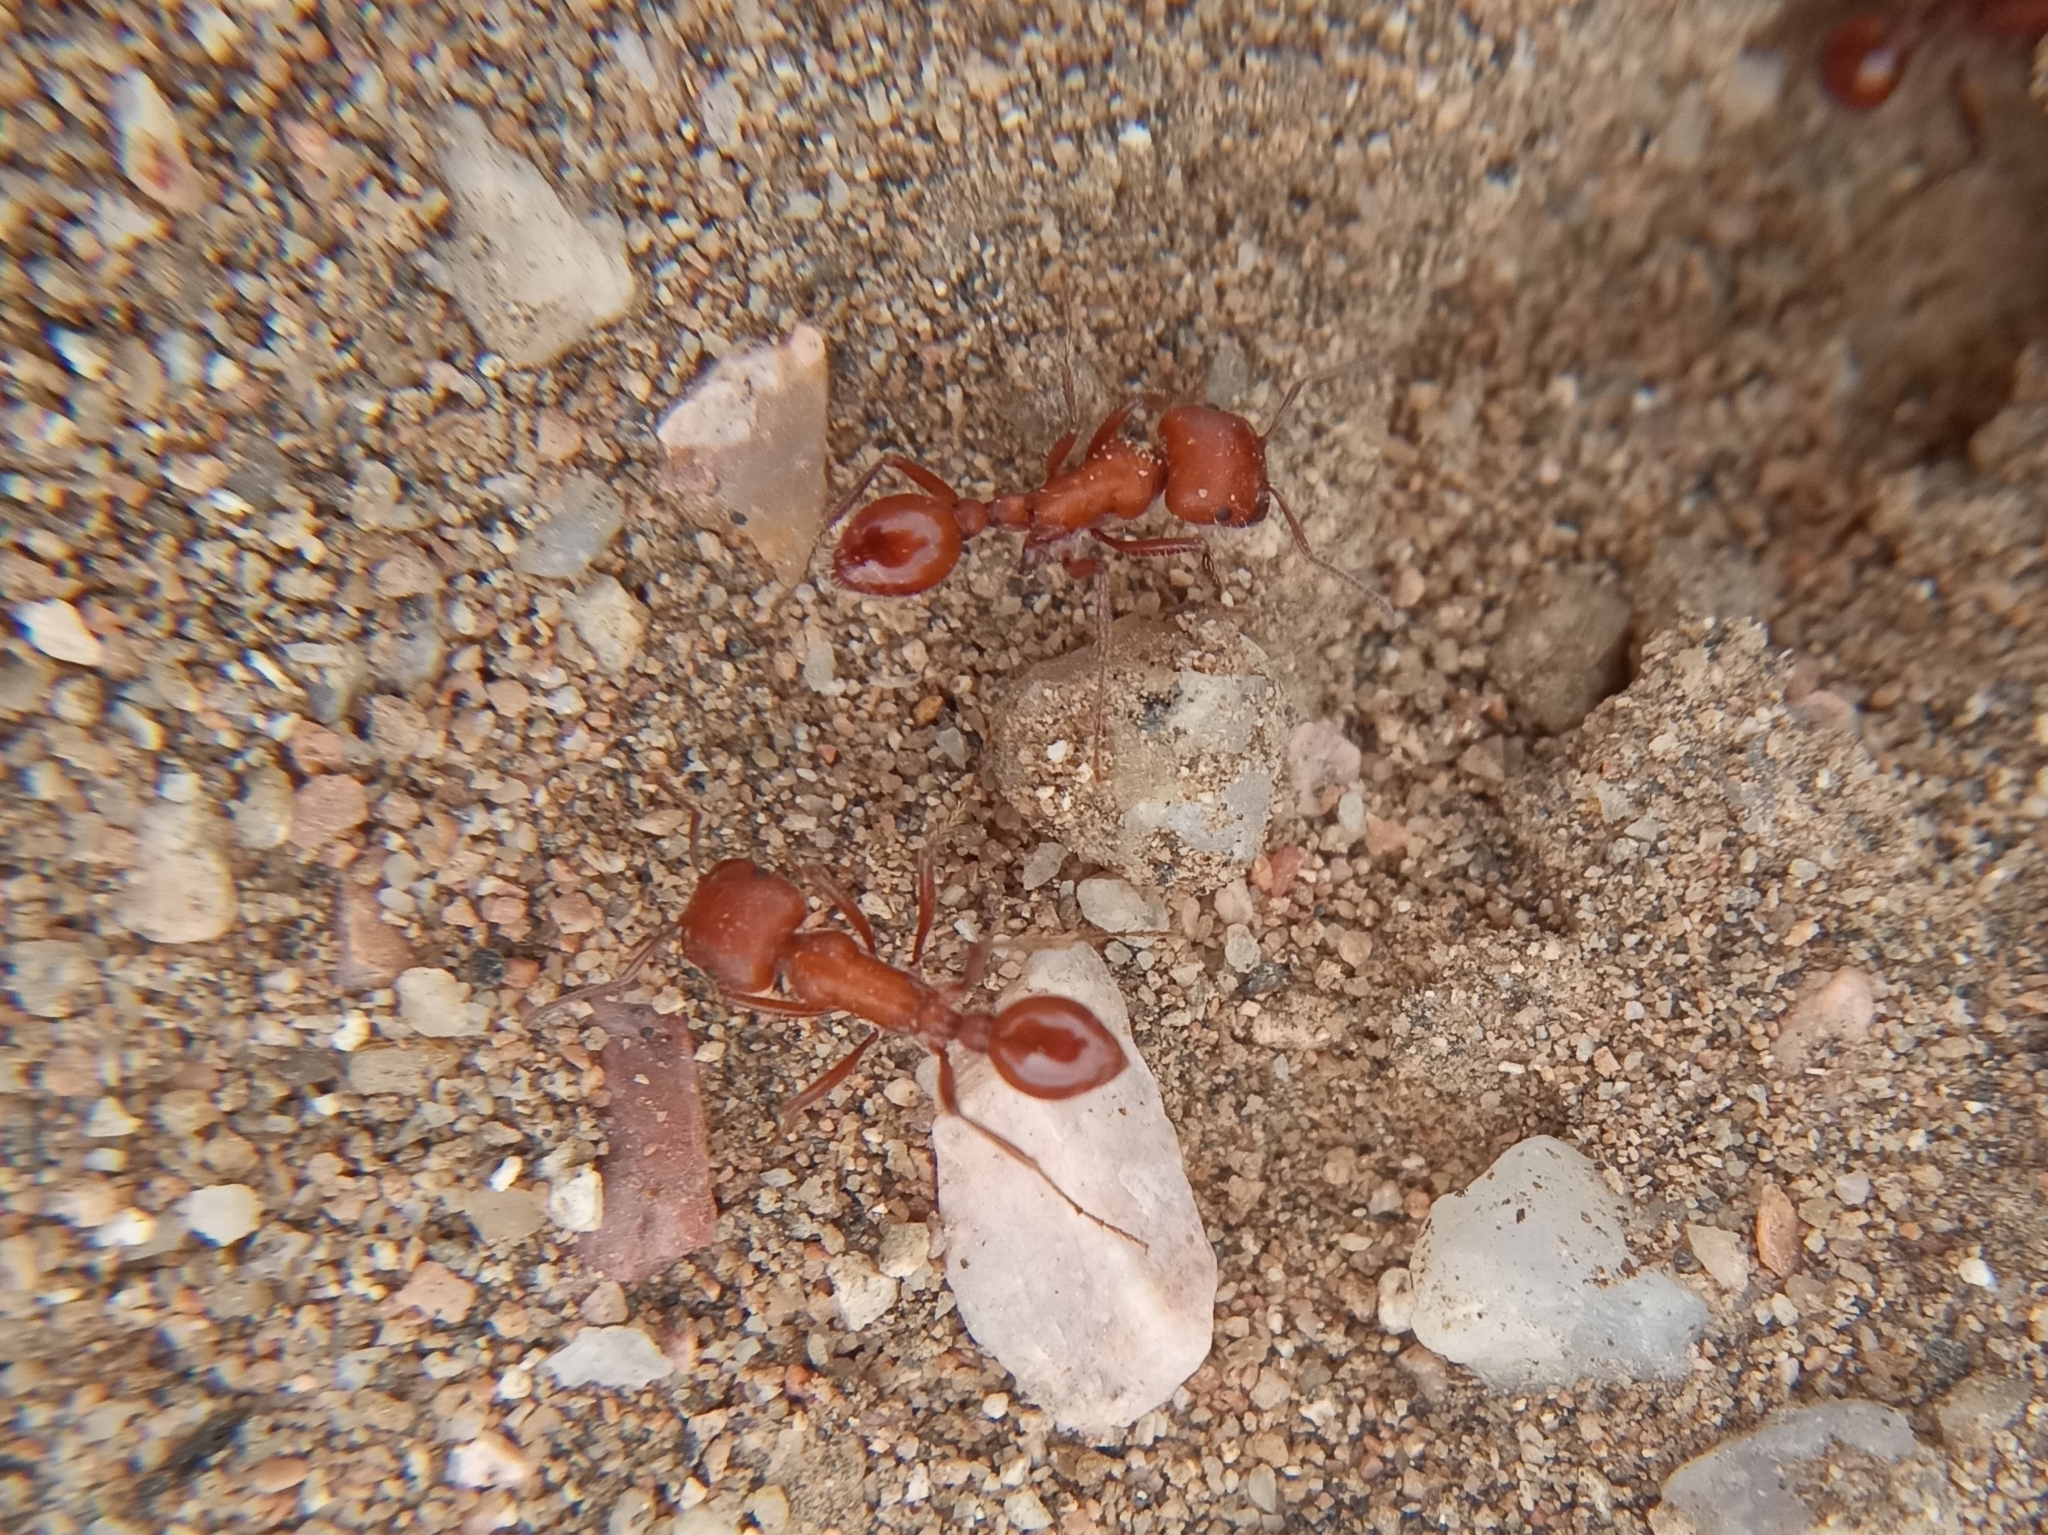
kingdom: Animalia
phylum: Arthropoda
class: Insecta
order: Hymenoptera
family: Formicidae
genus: Pogonomyrmex
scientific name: Pogonomyrmex maricopa
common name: Maricopa harvester ant
